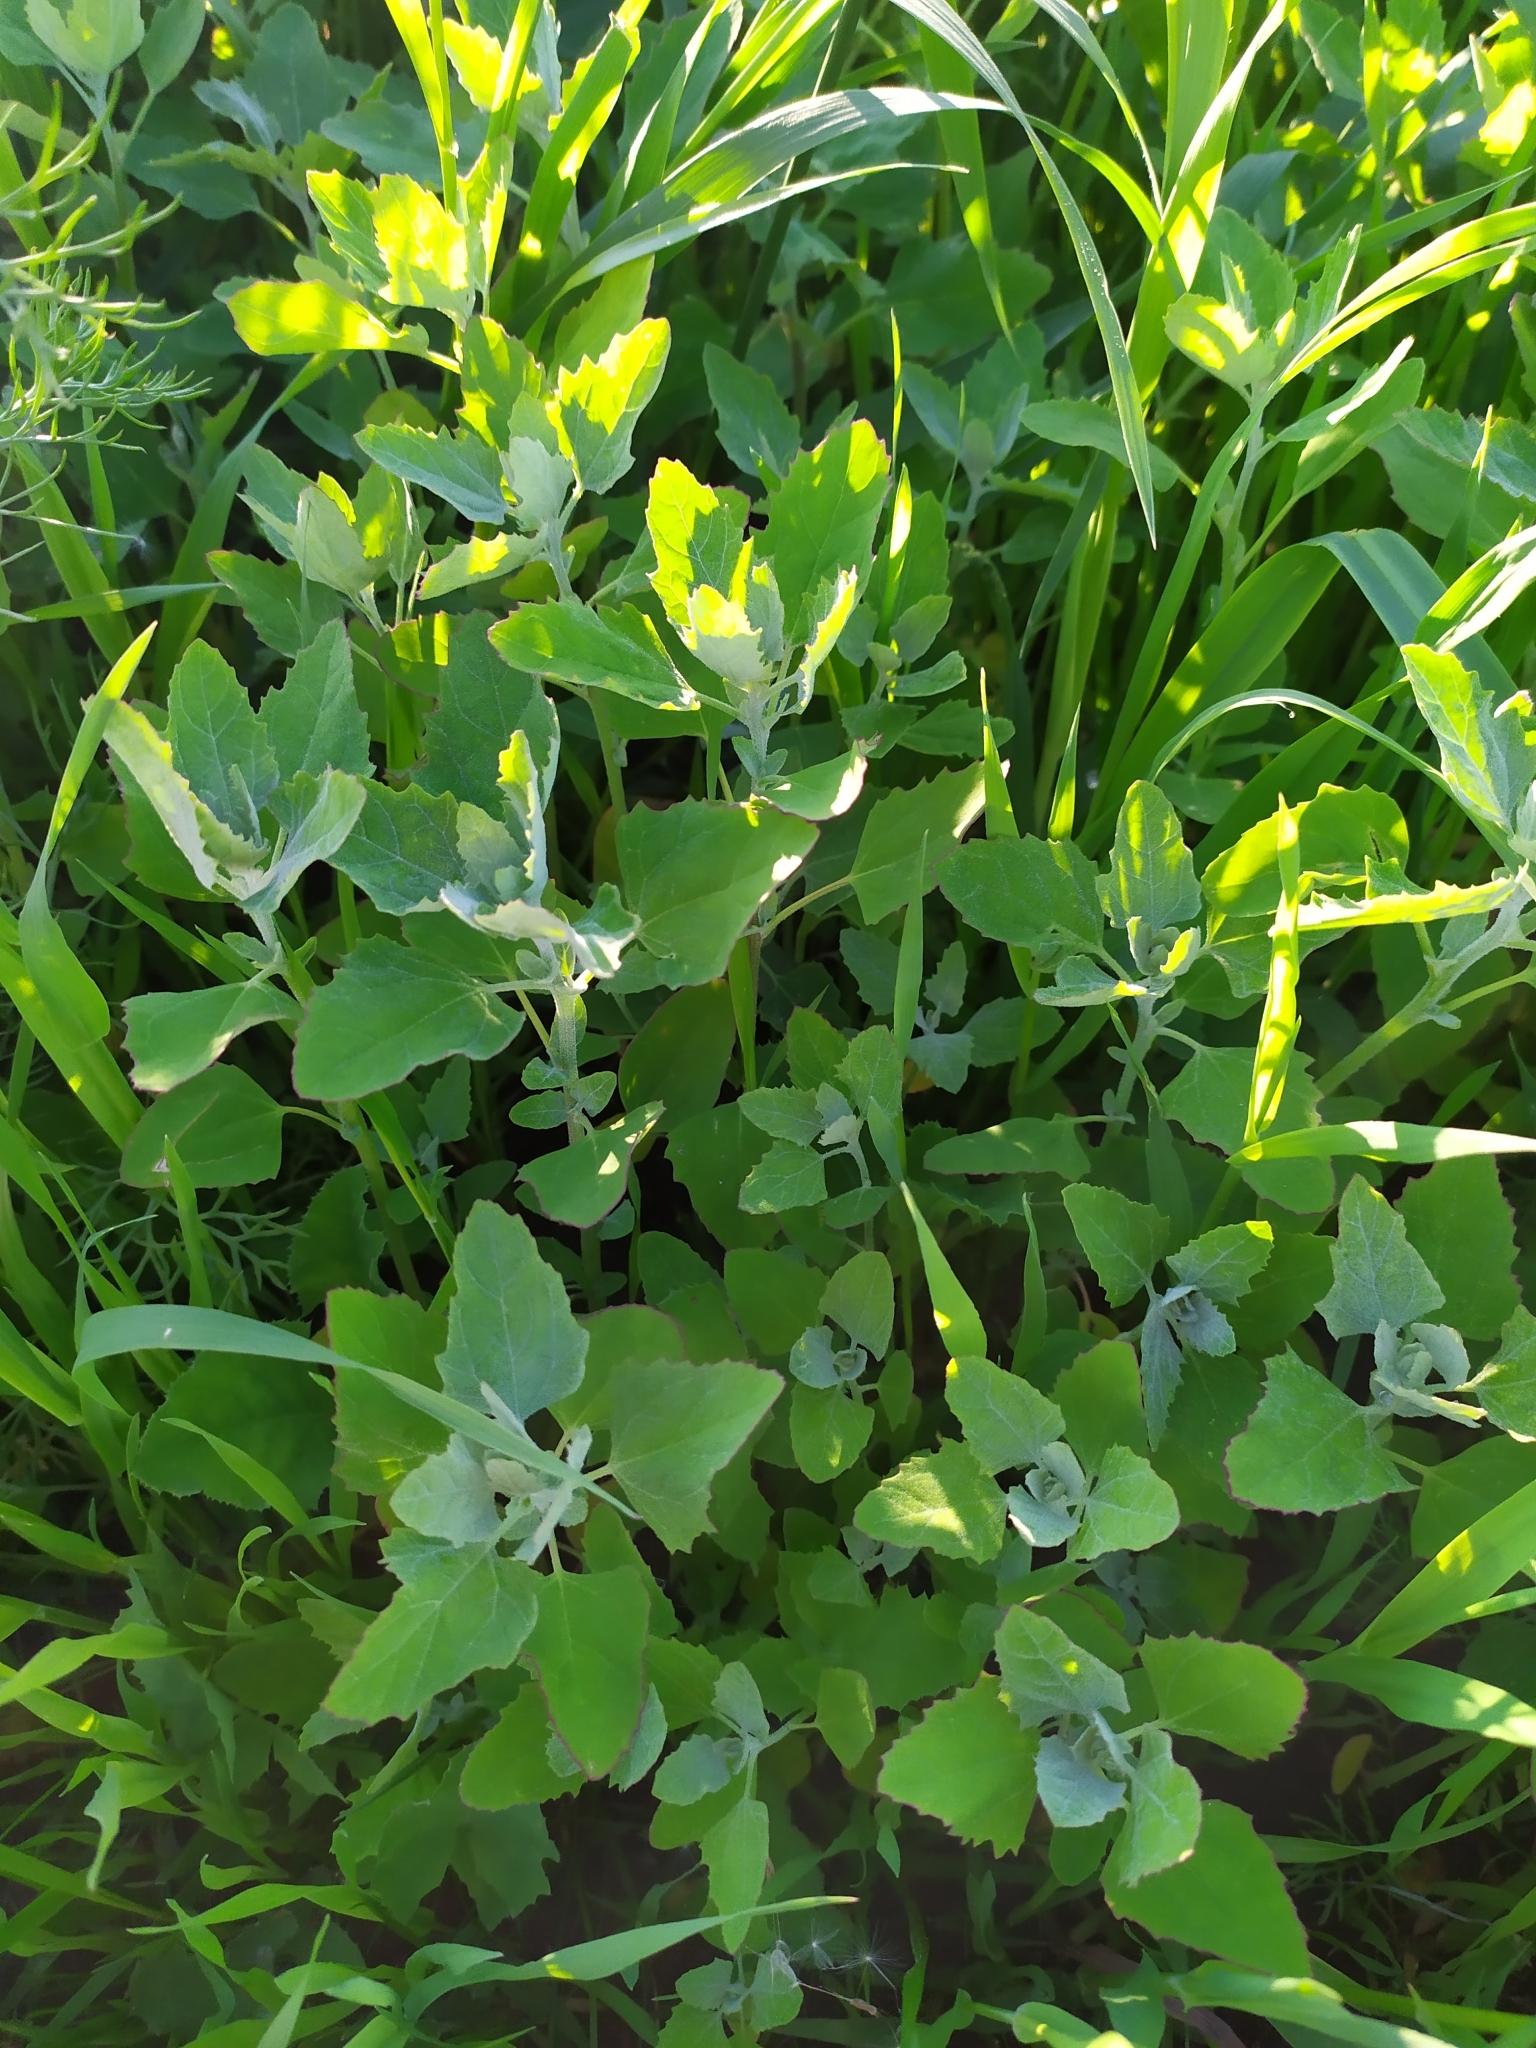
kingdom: Plantae
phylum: Tracheophyta
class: Magnoliopsida
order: Caryophyllales
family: Amaranthaceae
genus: Chenopodium
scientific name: Chenopodium album
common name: Fat-hen
